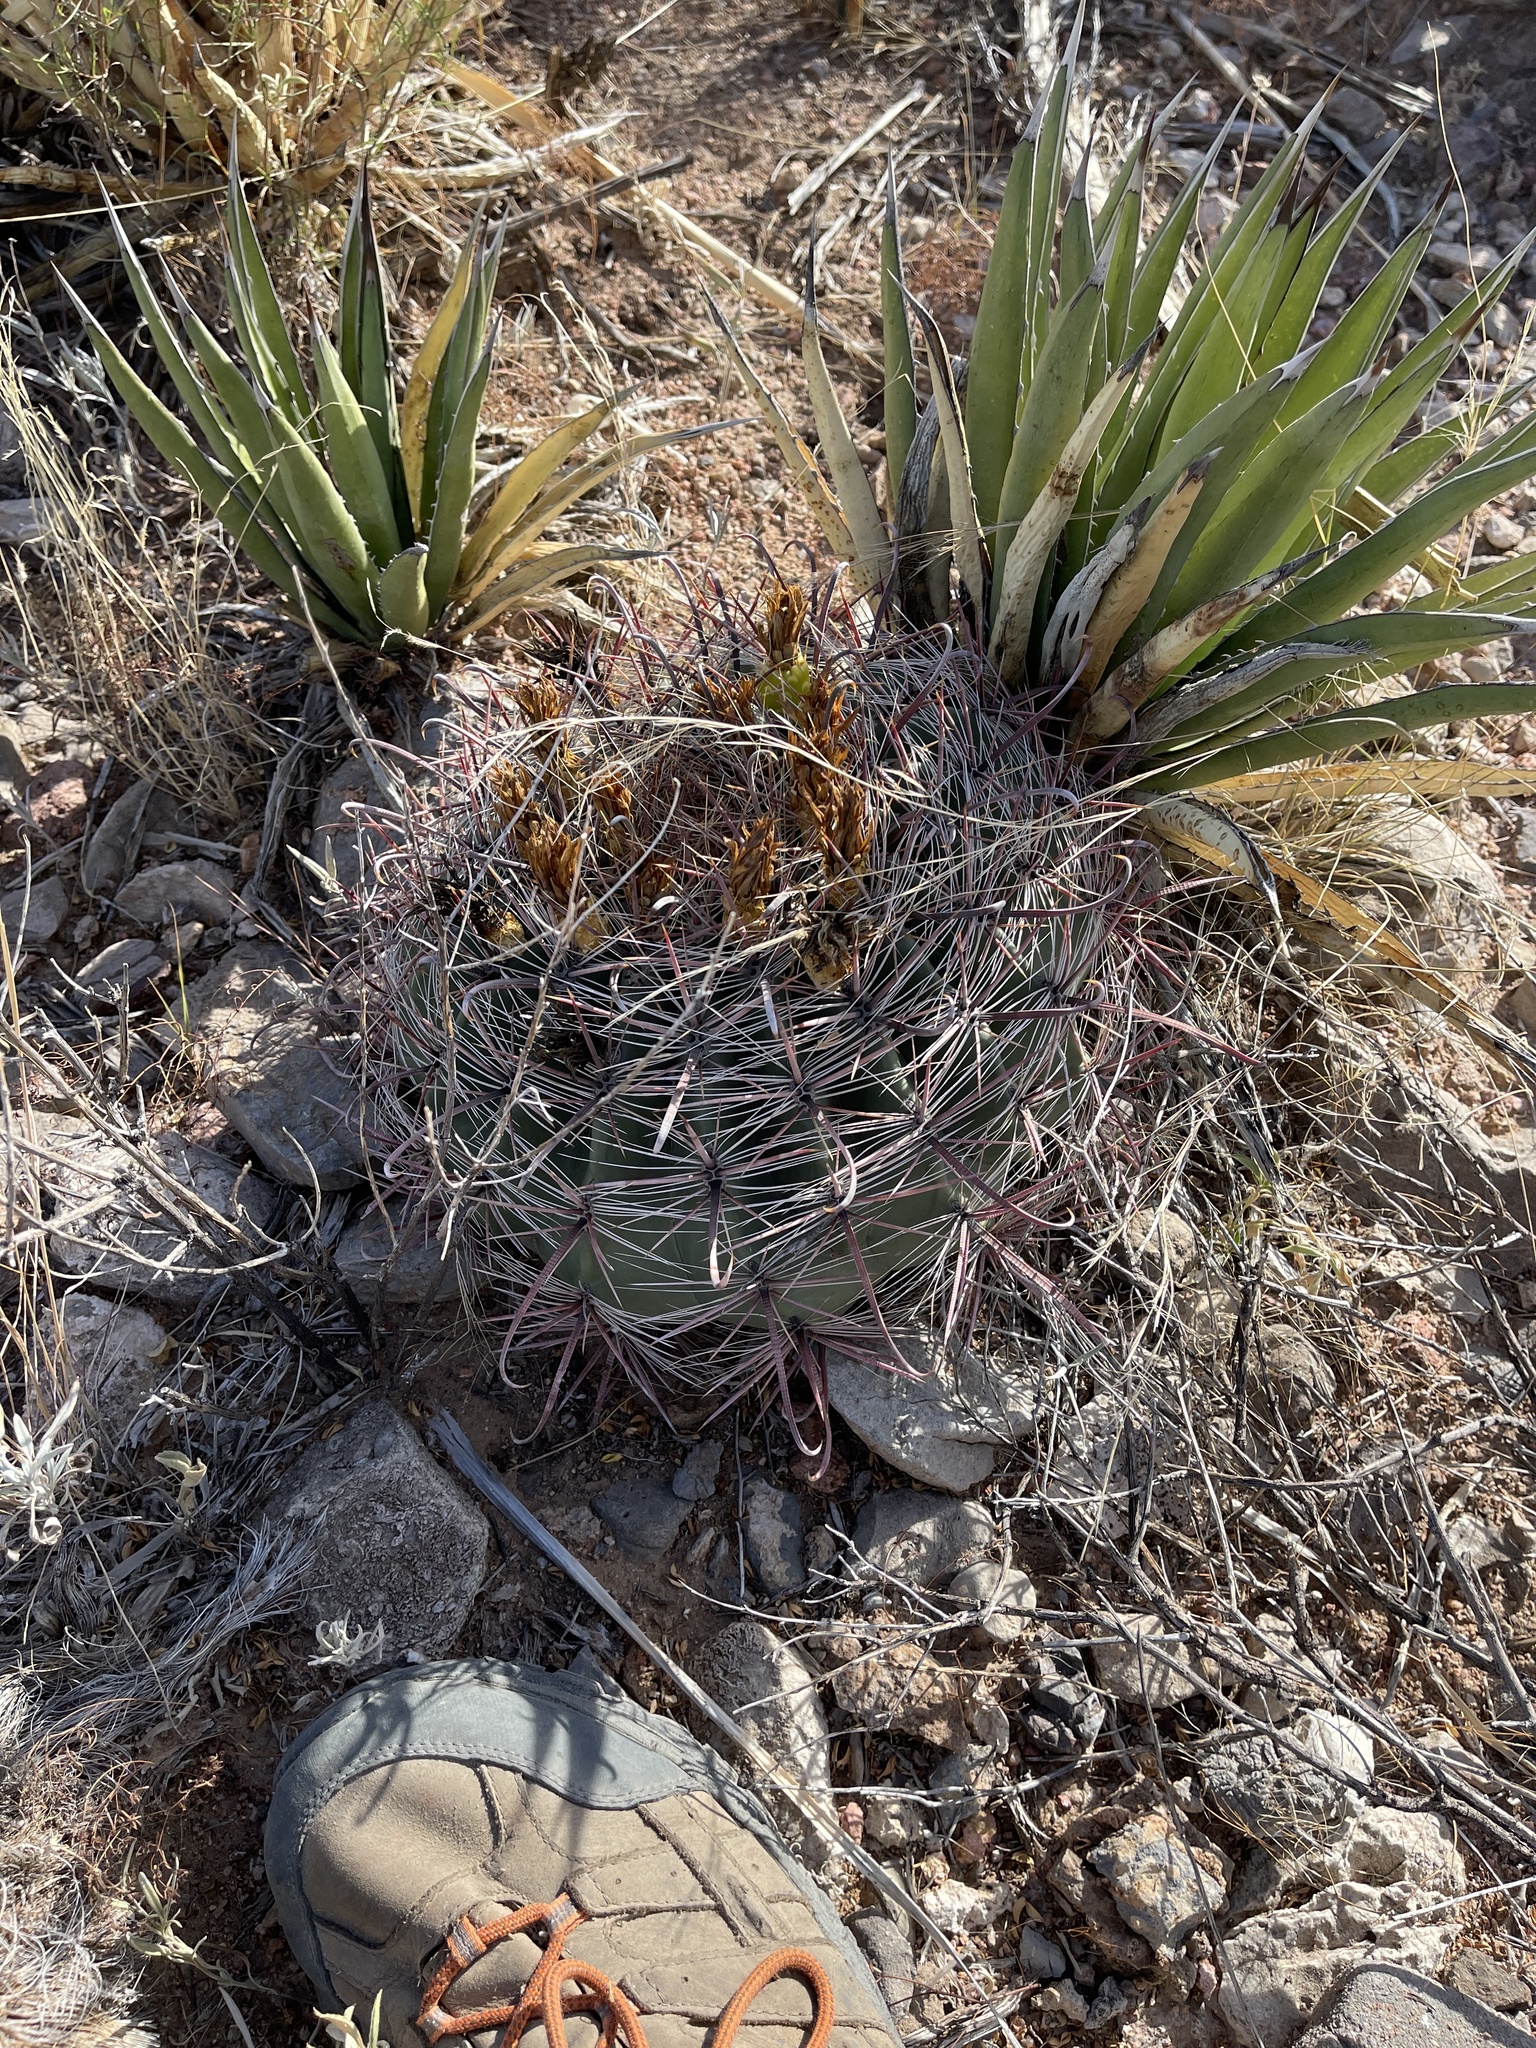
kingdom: Plantae
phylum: Tracheophyta
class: Magnoliopsida
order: Caryophyllales
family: Cactaceae
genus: Ferocactus
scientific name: Ferocactus wislizeni
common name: Candy barrel cactus
